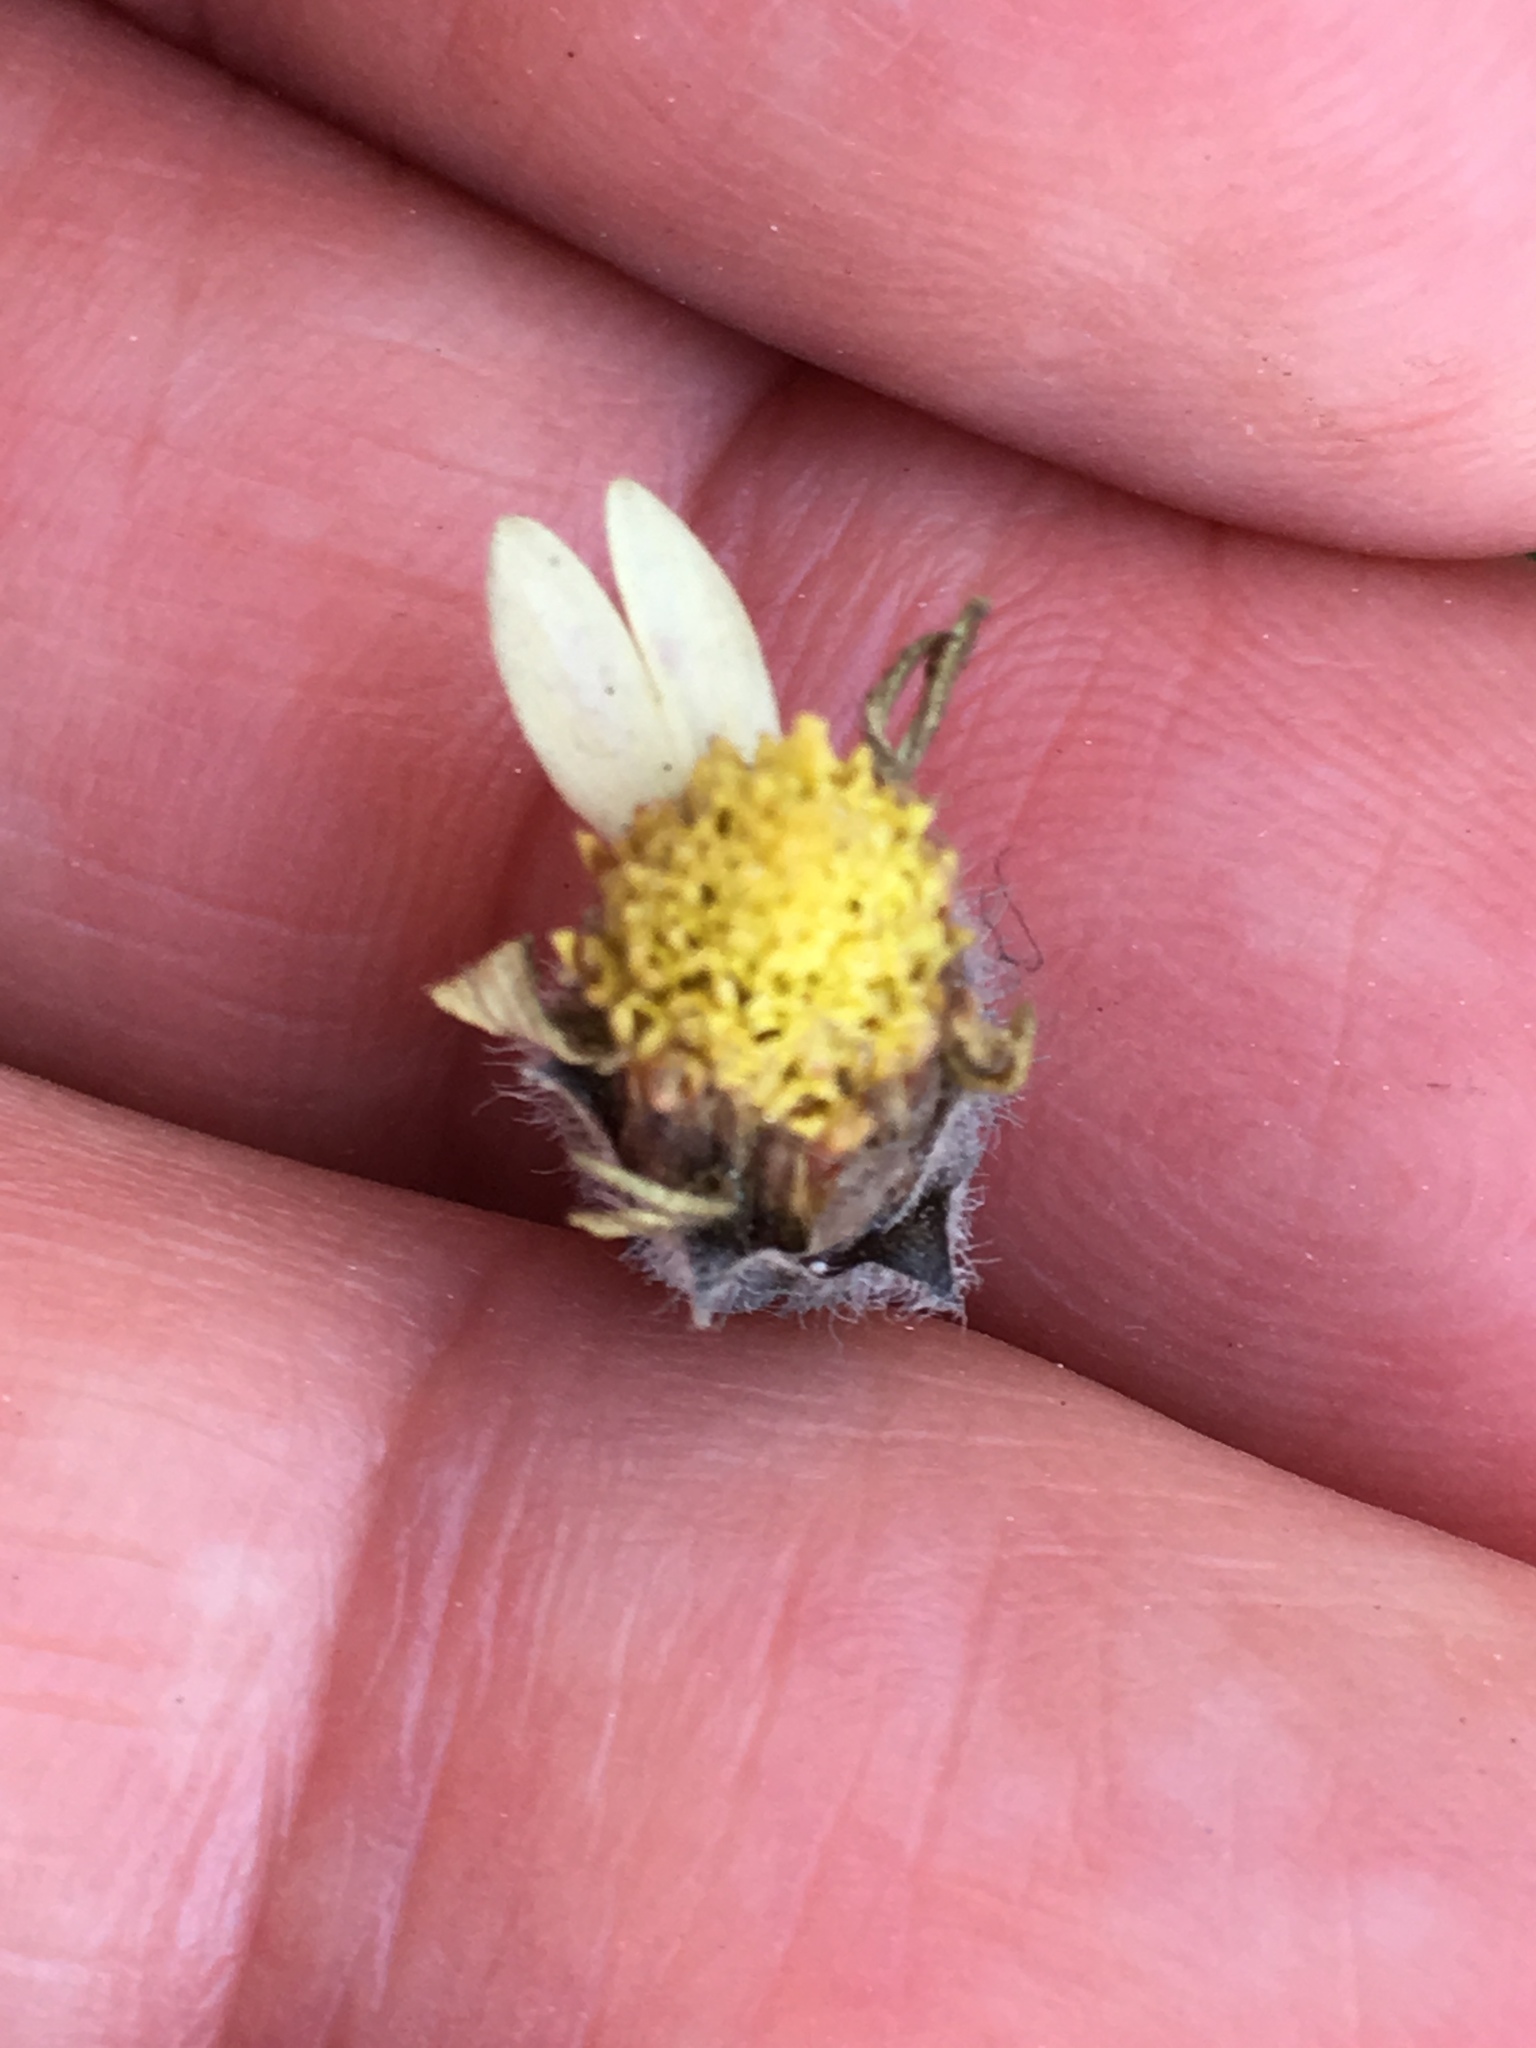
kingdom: Plantae
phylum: Tracheophyta
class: Magnoliopsida
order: Asterales
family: Asteraceae
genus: Tridax
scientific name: Tridax procumbens
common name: Coatbuttons
